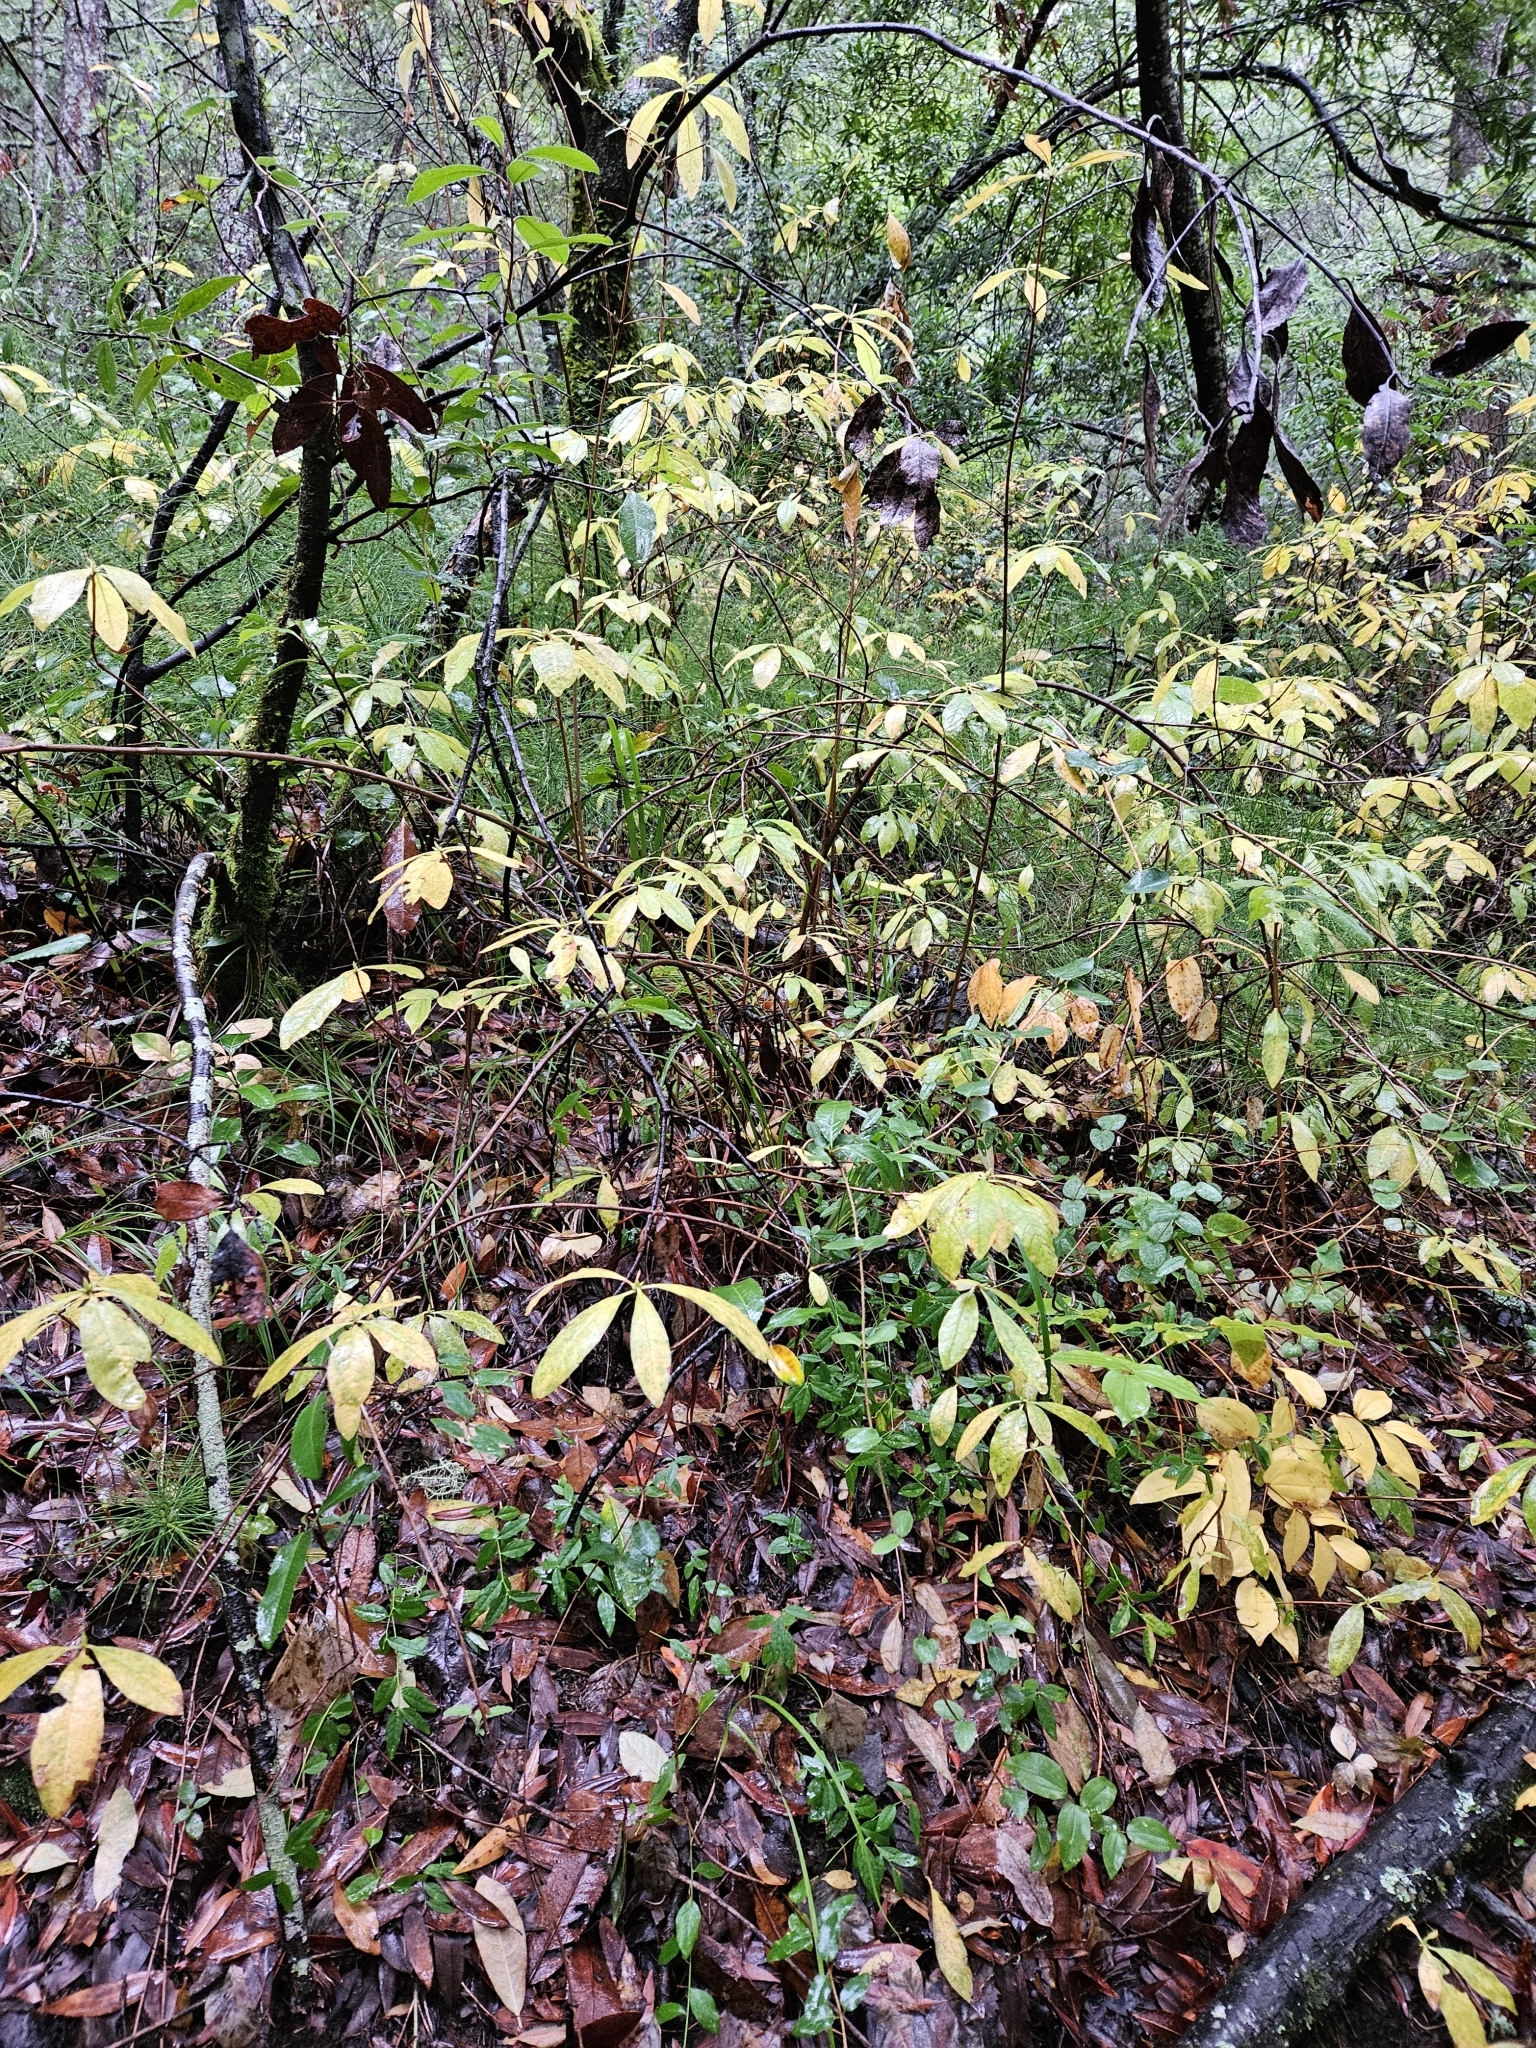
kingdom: Plantae
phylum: Tracheophyta
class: Magnoliopsida
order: Ericales
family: Ericaceae
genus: Rhododendron
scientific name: Rhododendron occidentale
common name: Western azalea
